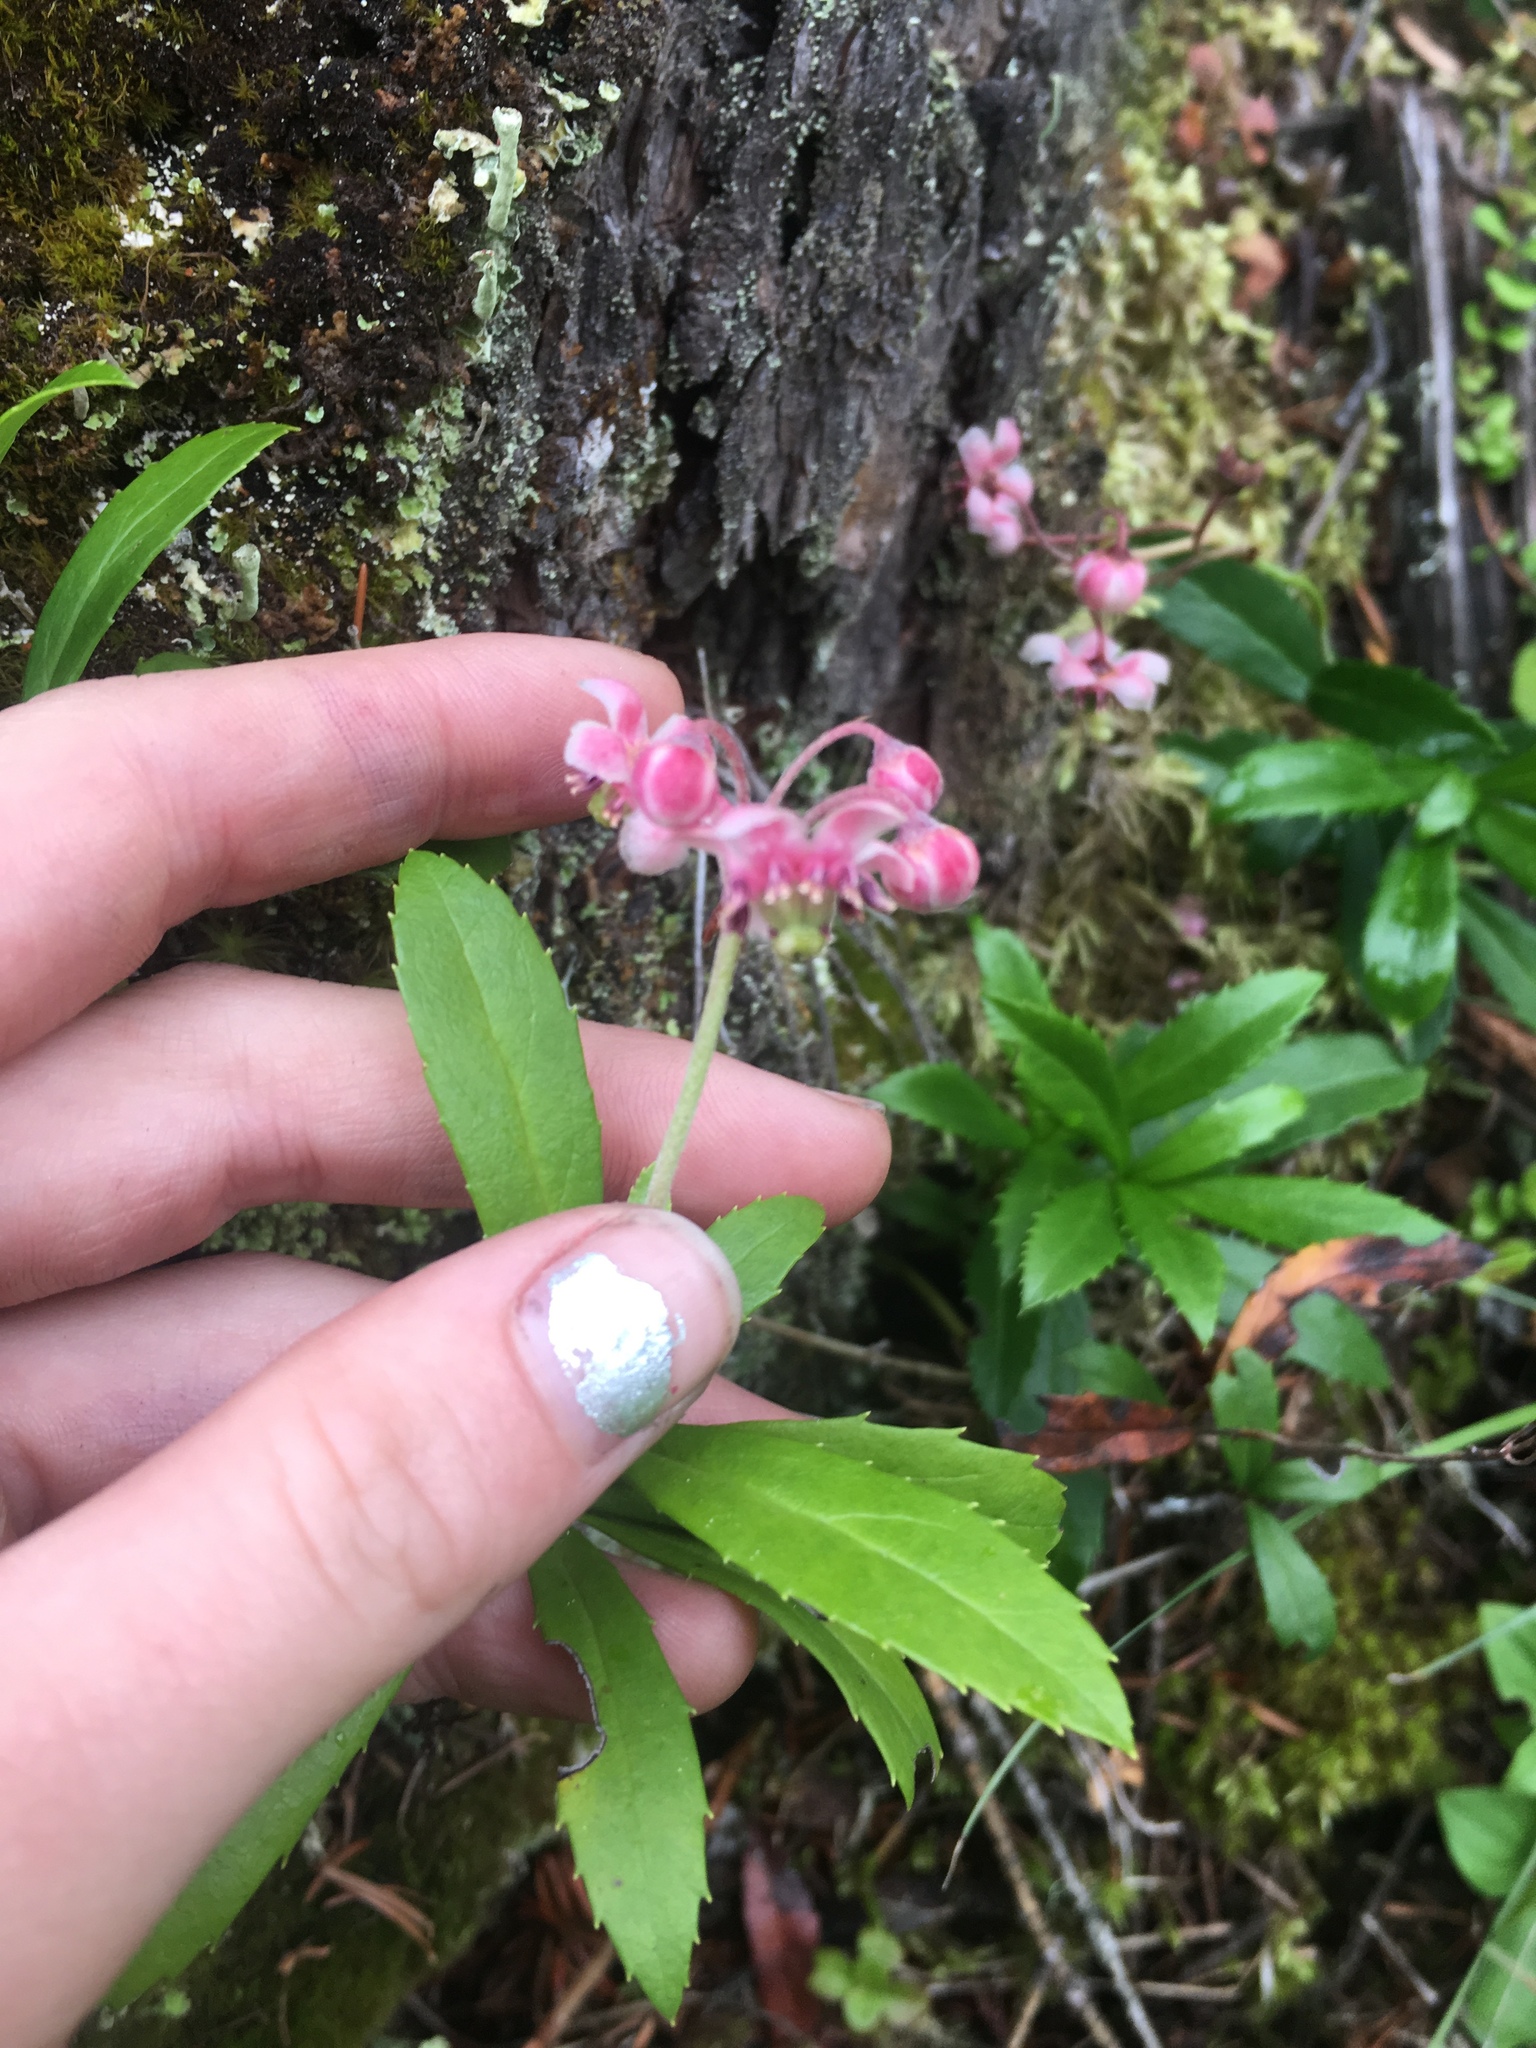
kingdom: Plantae
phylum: Tracheophyta
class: Magnoliopsida
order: Ericales
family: Ericaceae
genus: Chimaphila
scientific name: Chimaphila umbellata
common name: Pipsissewa
